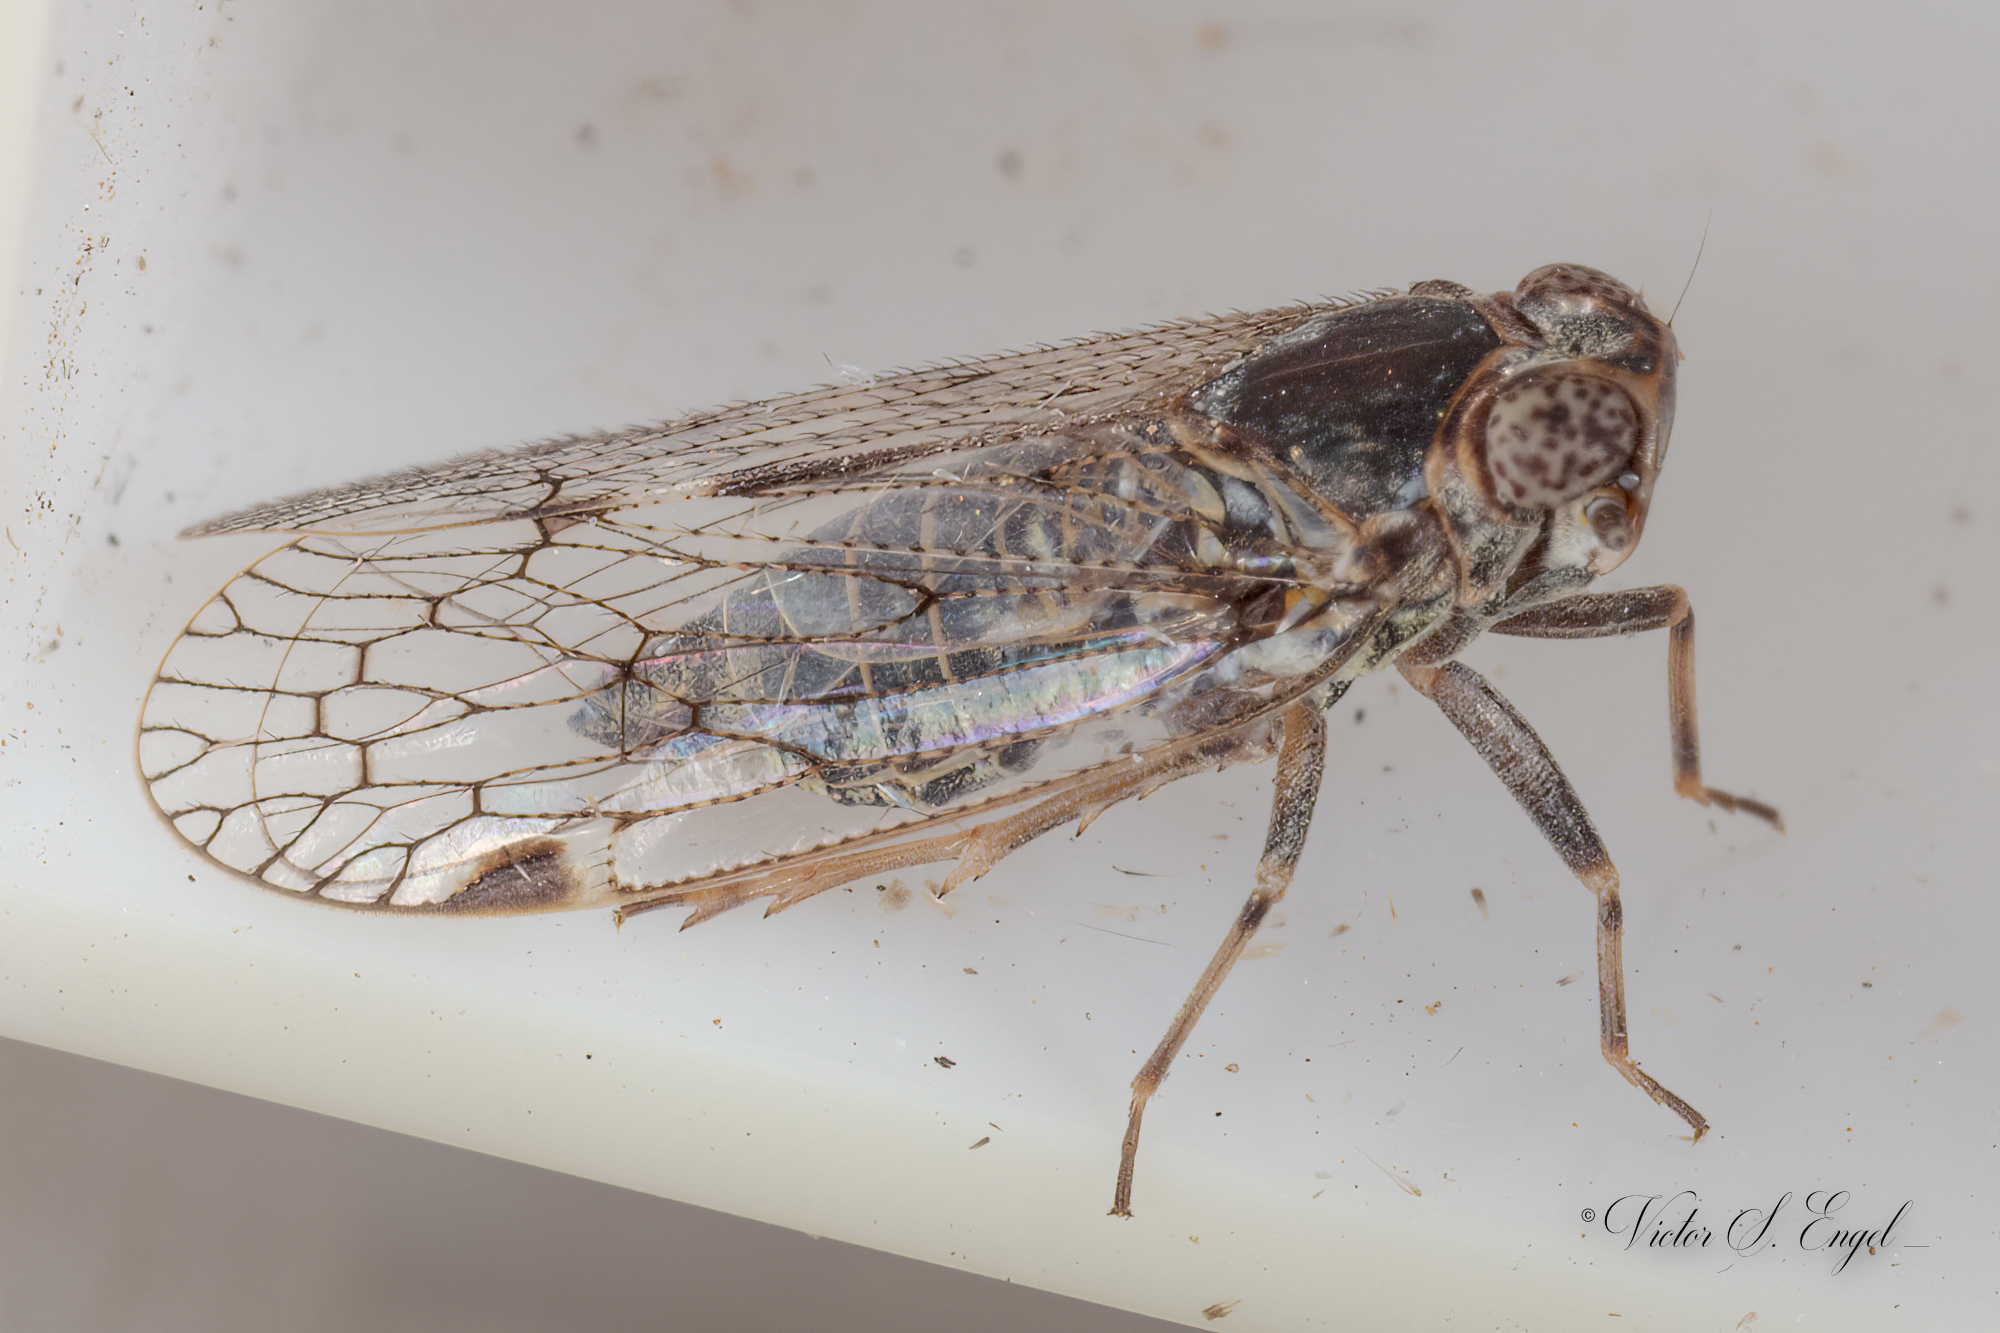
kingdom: Animalia
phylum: Arthropoda
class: Insecta
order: Hemiptera
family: Cixiidae
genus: Melanoliarus
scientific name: Melanoliarus aridus
